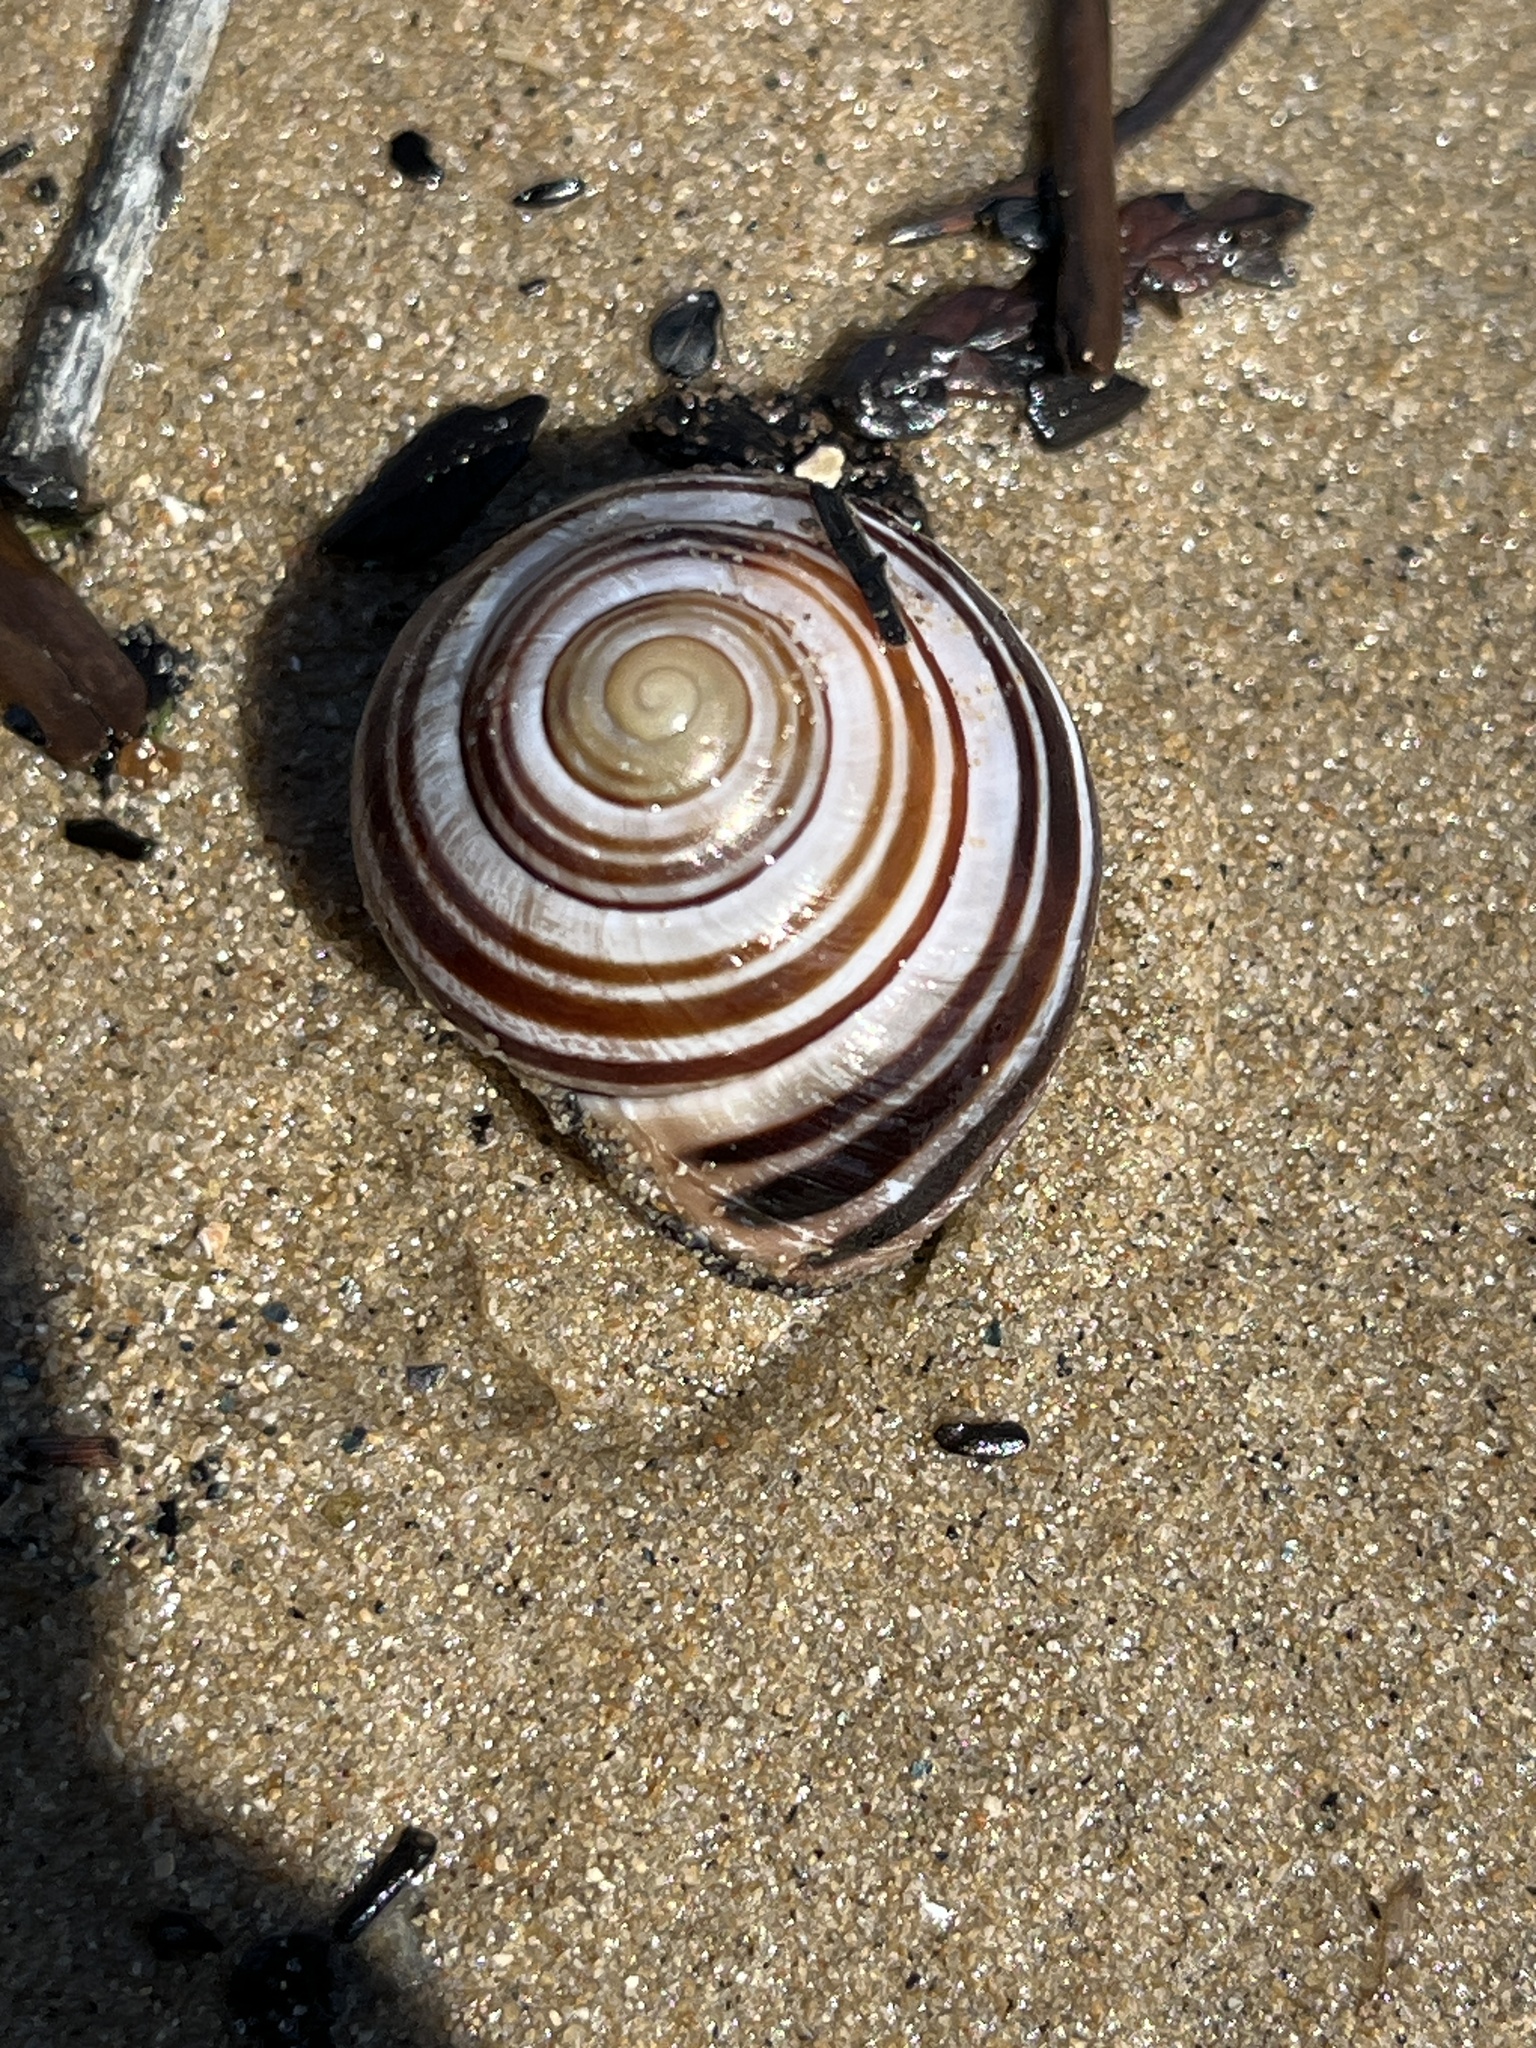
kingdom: Animalia
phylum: Mollusca
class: Gastropoda
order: Stylommatophora
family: Helicidae
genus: Cepaea
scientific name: Cepaea nemoralis
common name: Grovesnail
